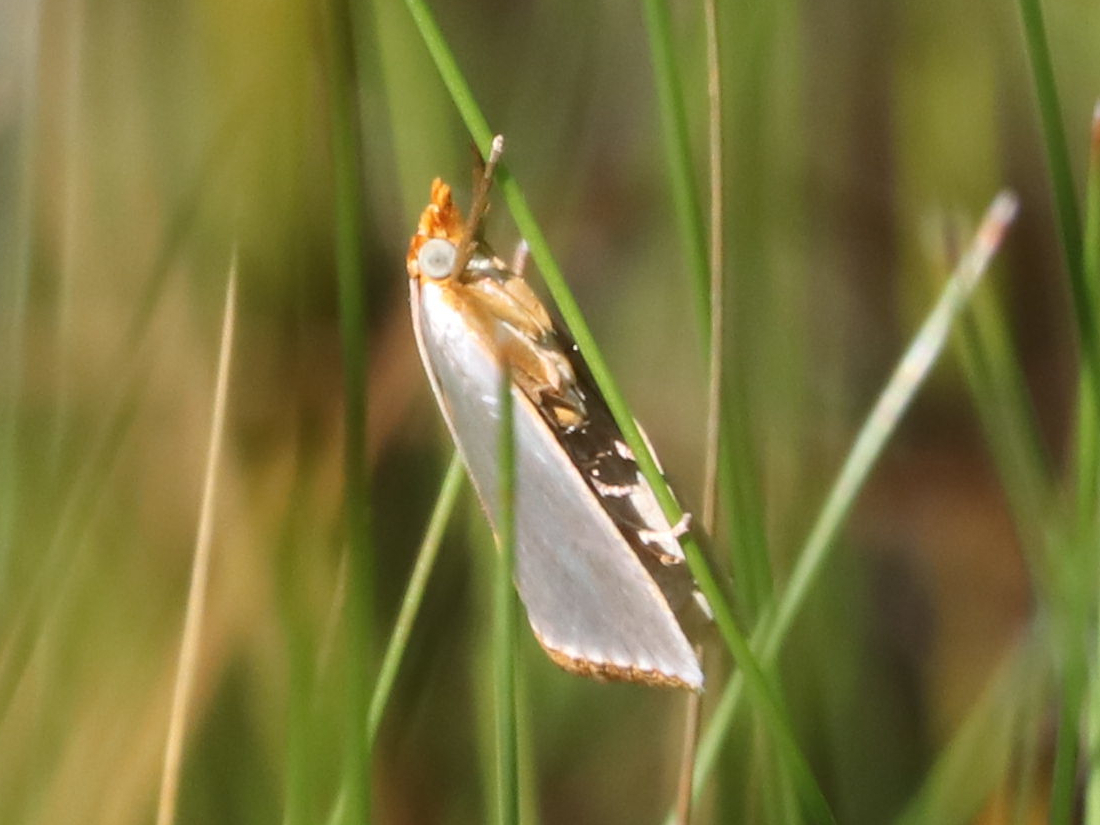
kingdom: Animalia
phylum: Arthropoda
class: Insecta
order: Lepidoptera
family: Crambidae
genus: Argyria
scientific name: Argyria
